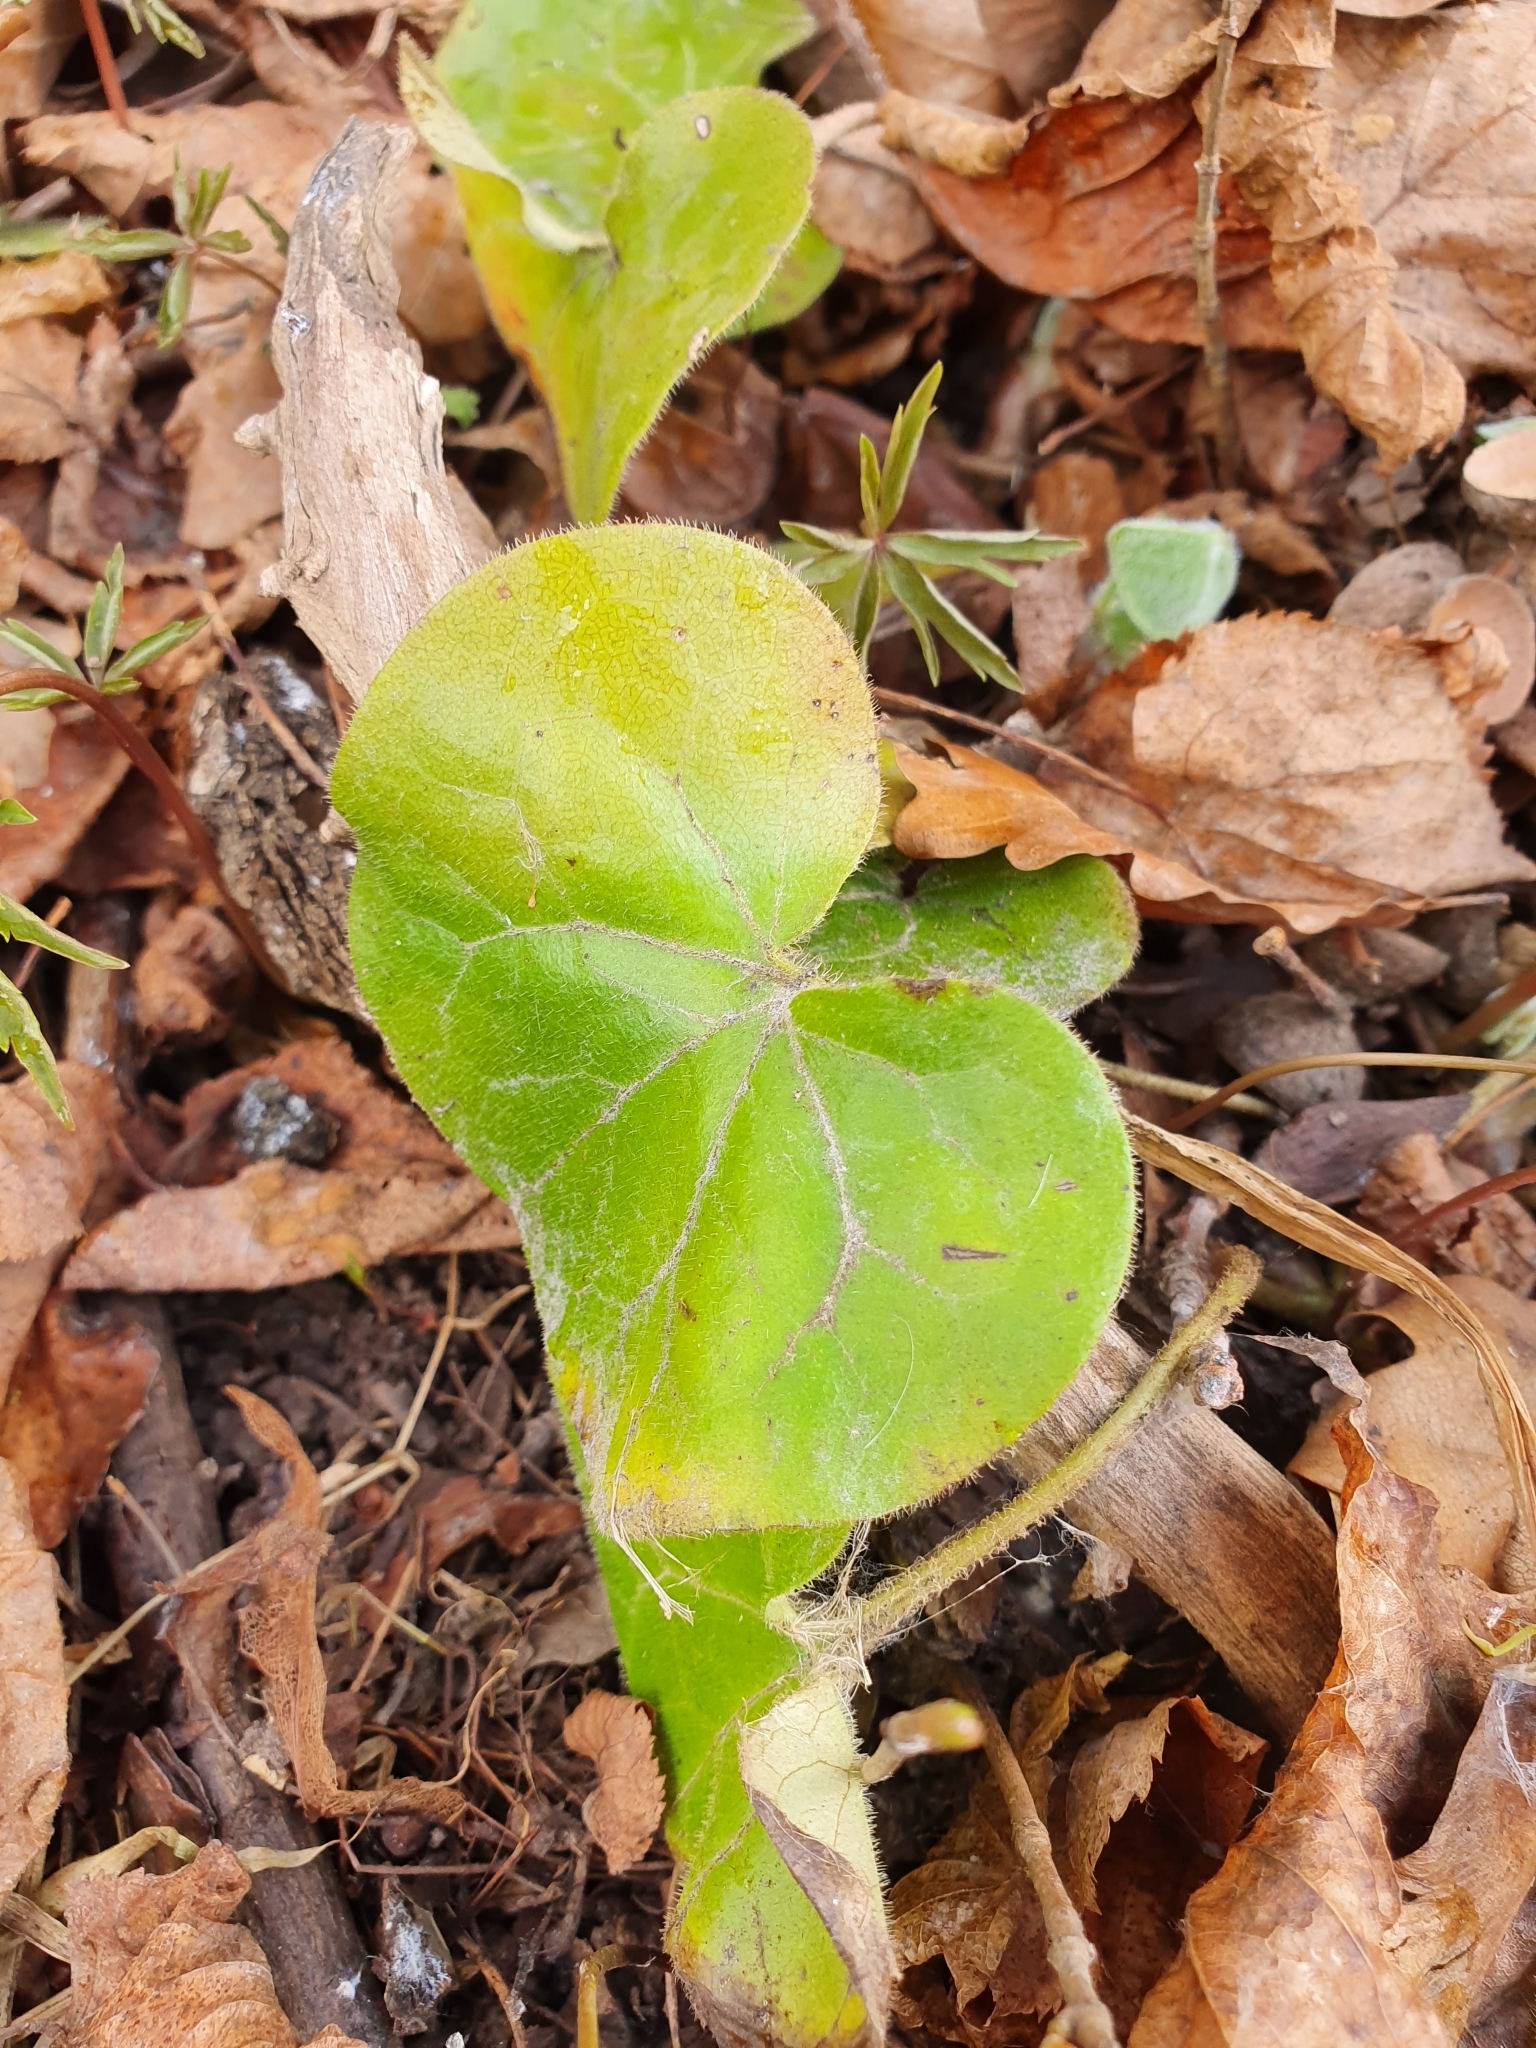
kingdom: Plantae
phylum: Tracheophyta
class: Magnoliopsida
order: Piperales
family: Aristolochiaceae
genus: Asarum
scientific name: Asarum europaeum
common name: Asarabacca
